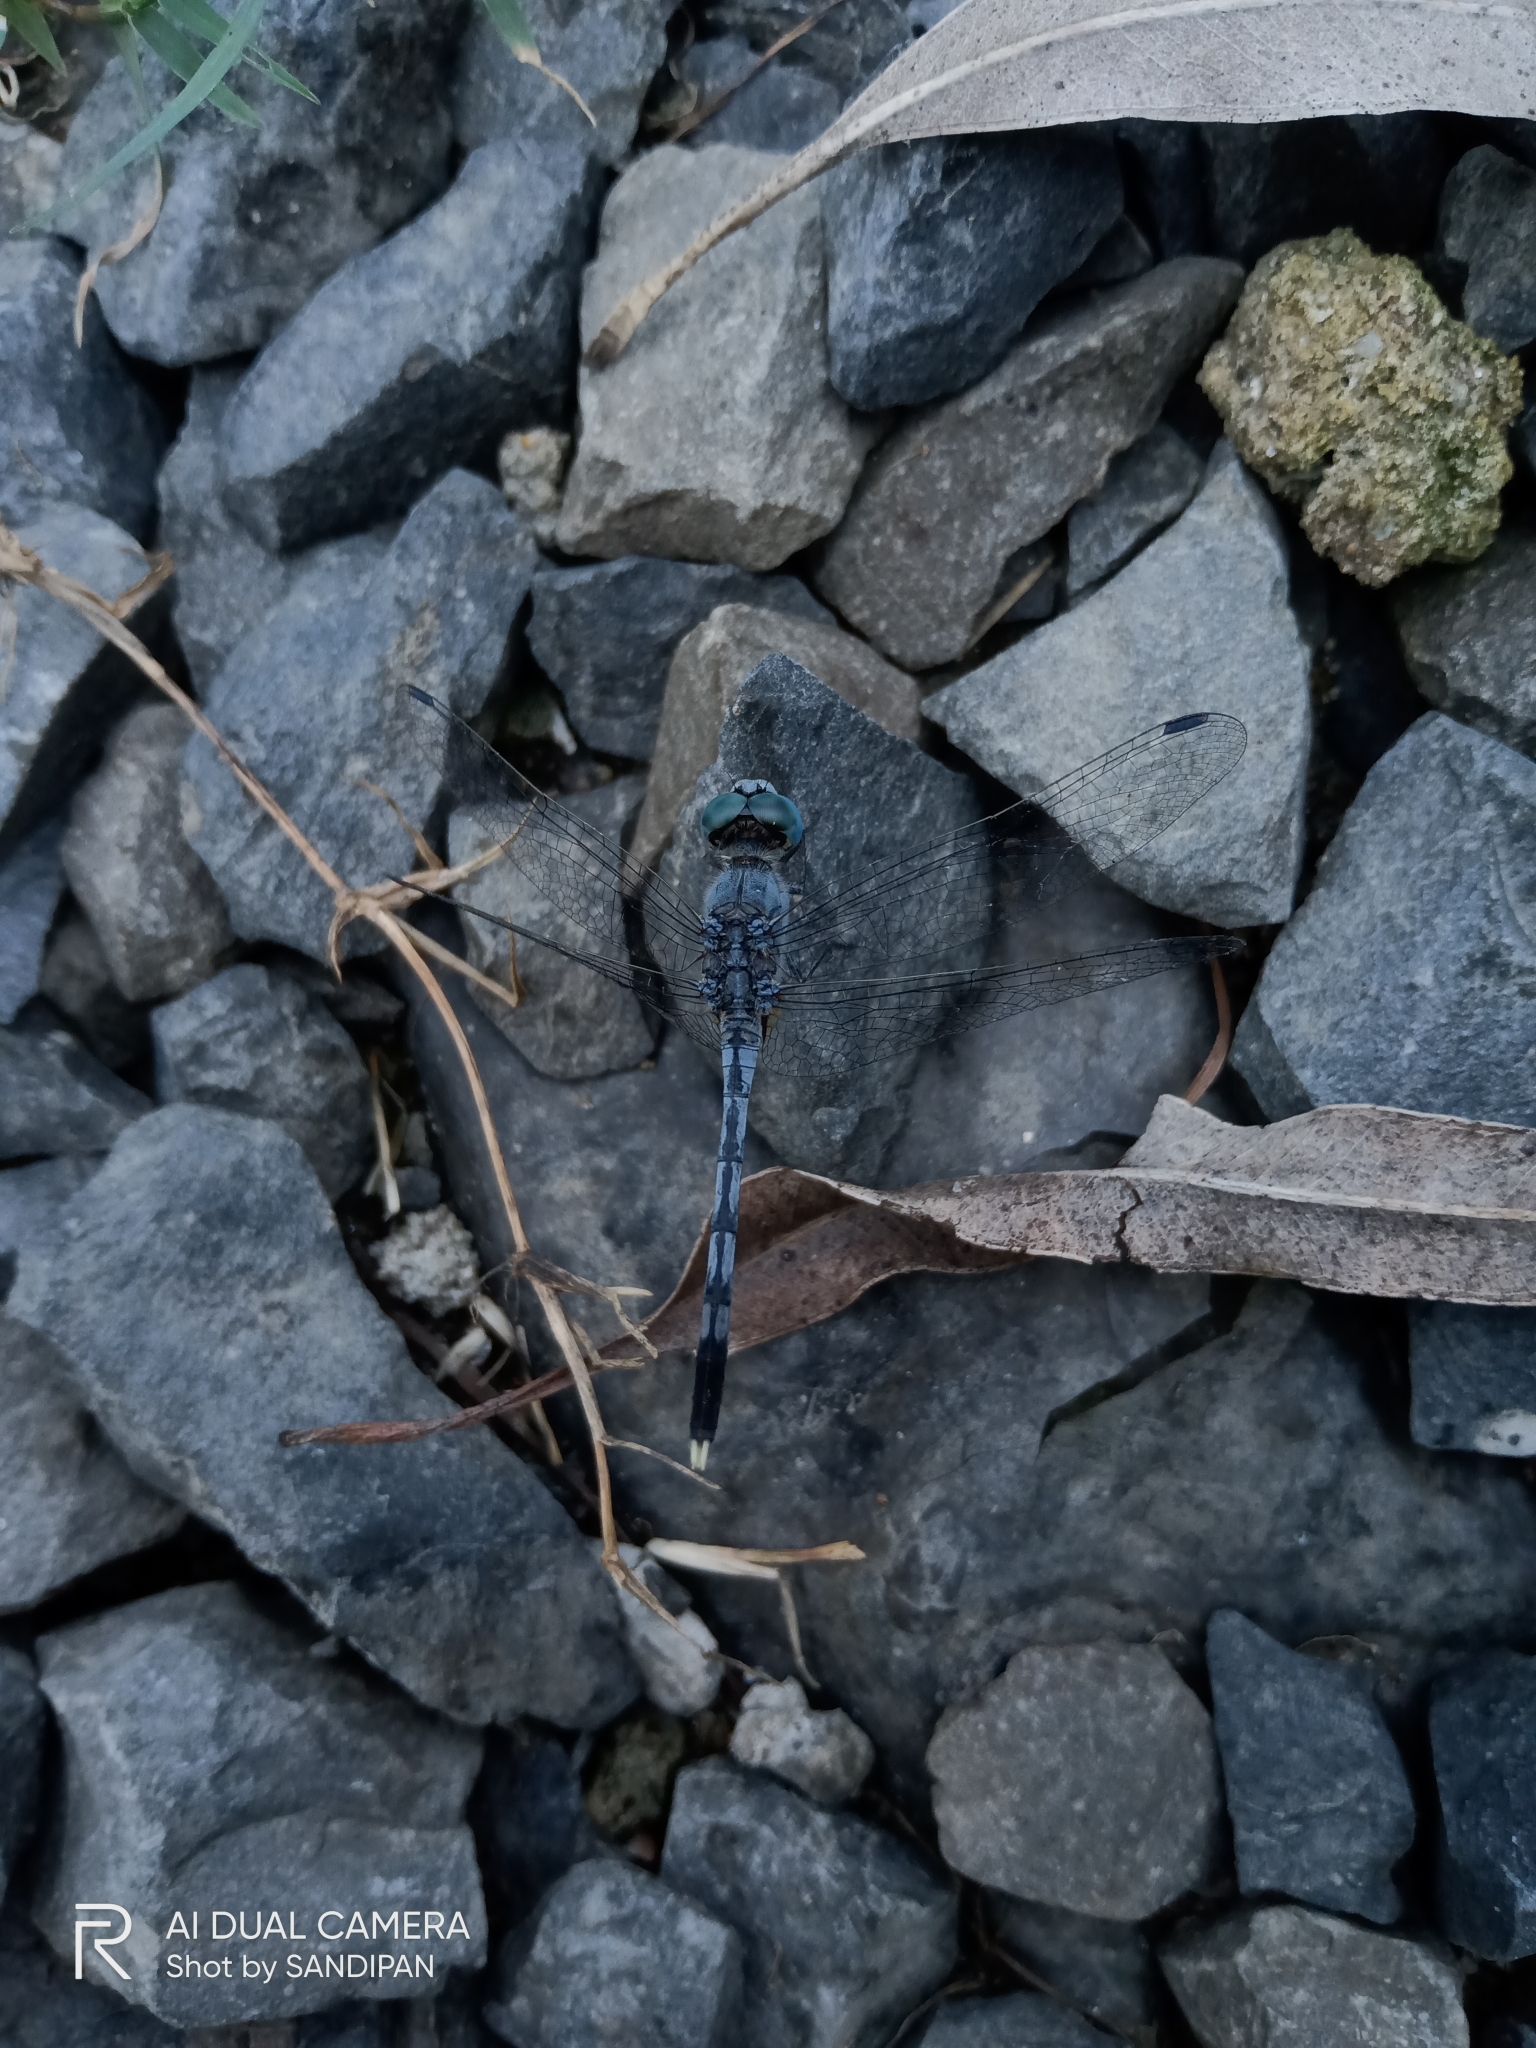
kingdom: Animalia
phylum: Arthropoda
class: Insecta
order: Odonata
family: Libellulidae
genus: Diplacodes
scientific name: Diplacodes trivialis
